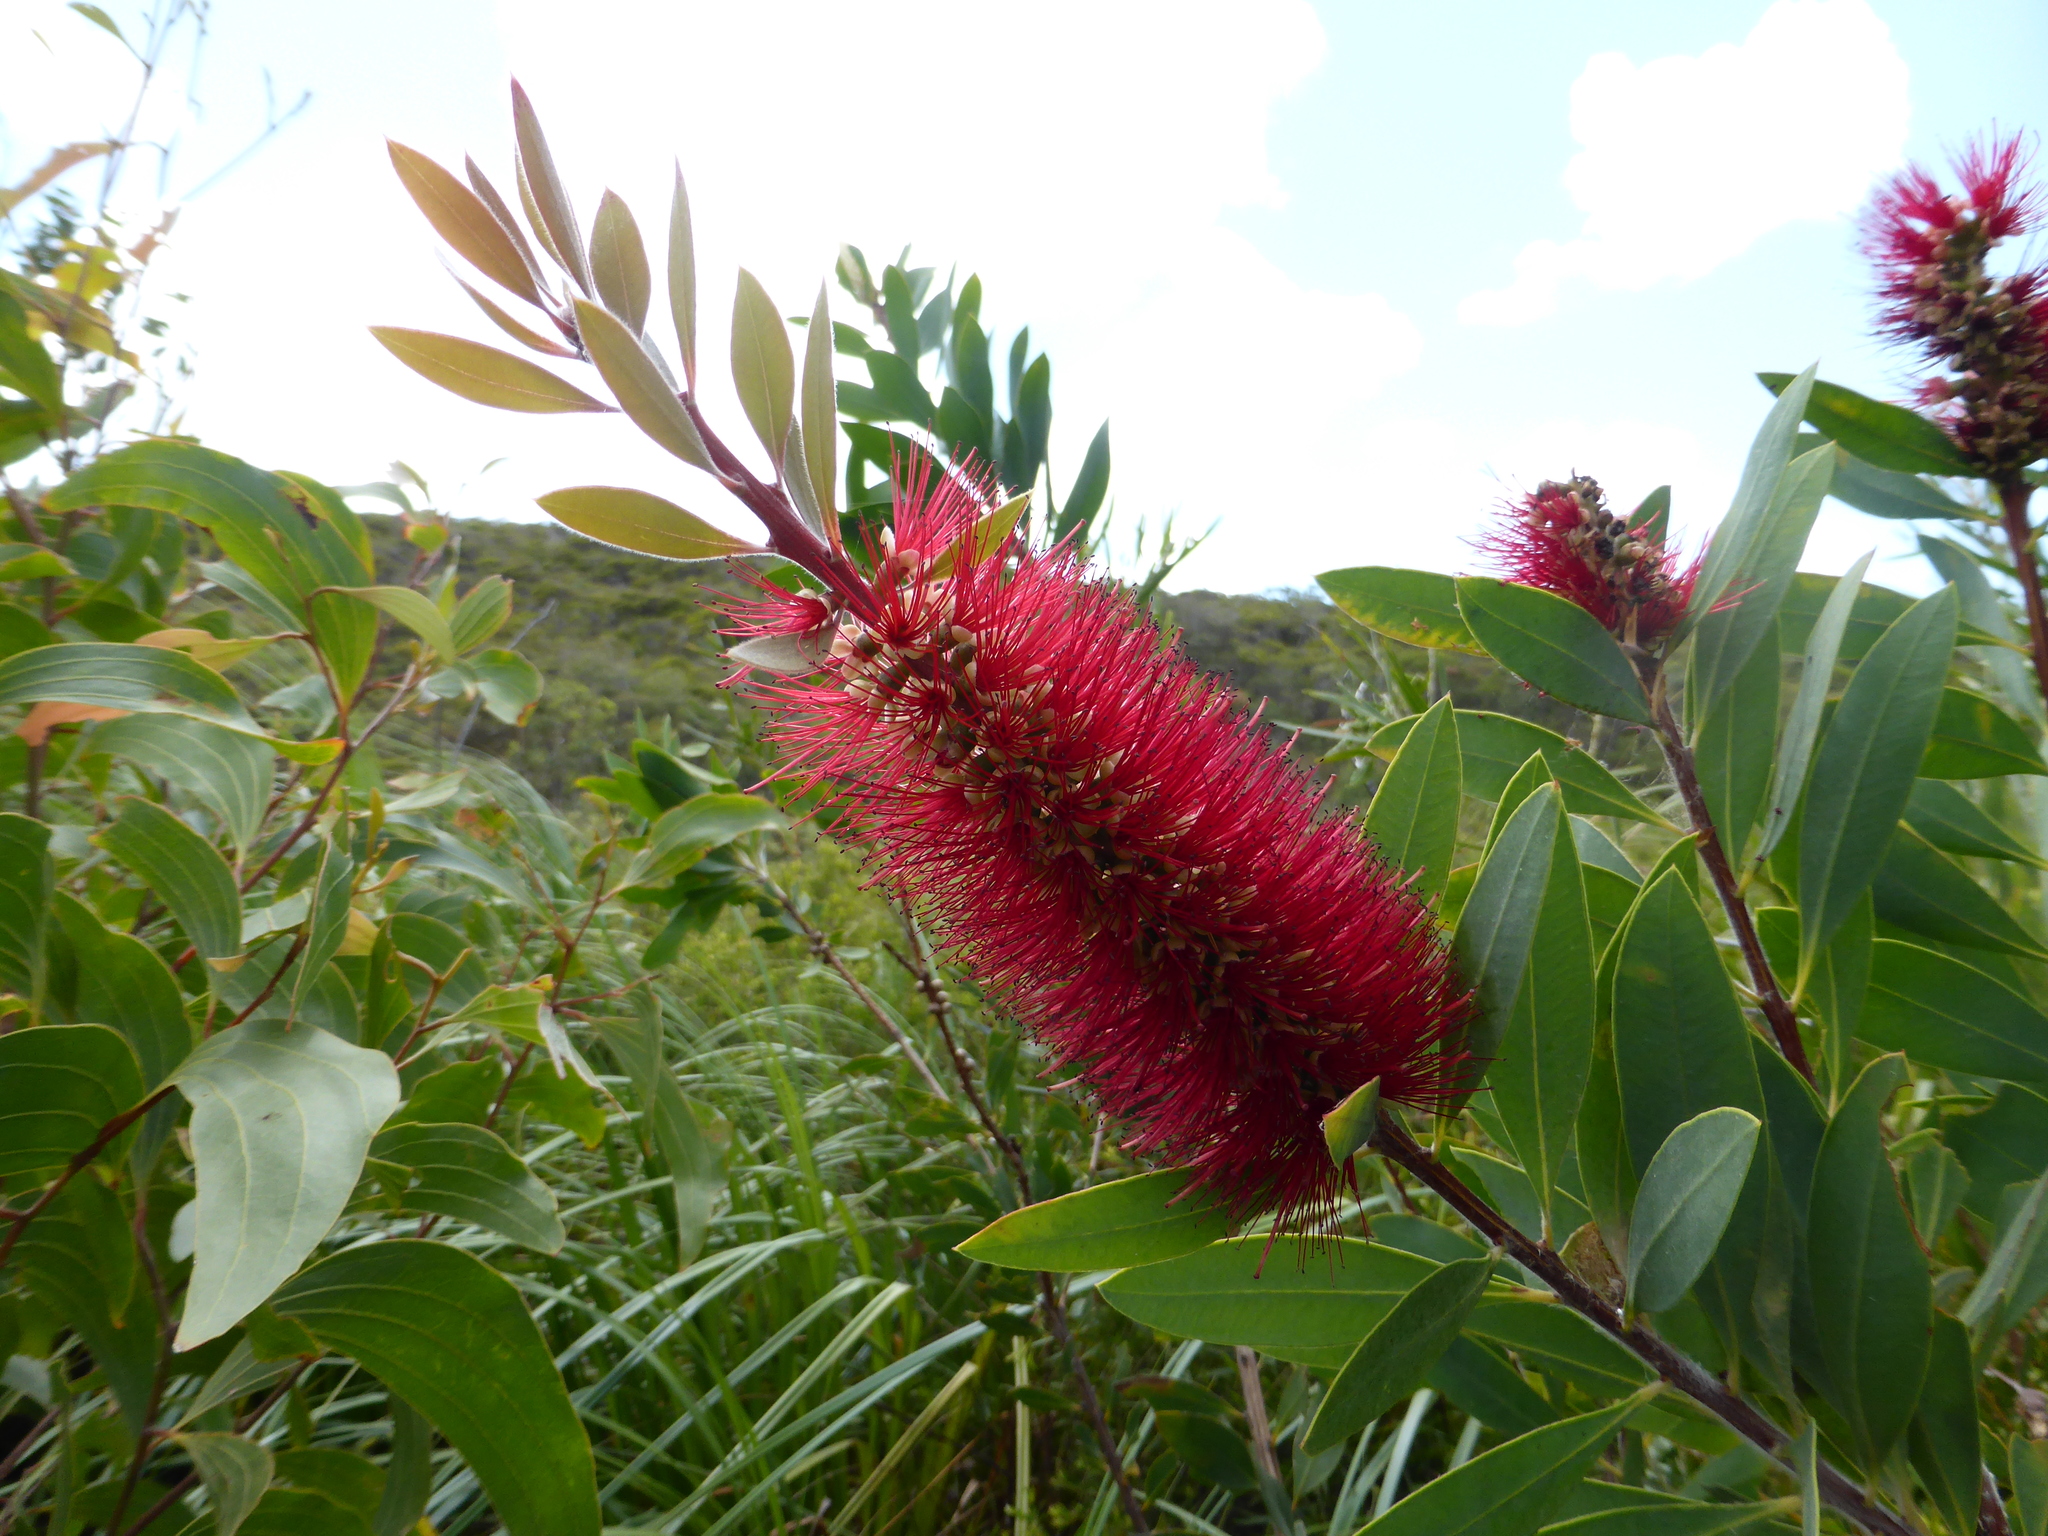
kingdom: Plantae
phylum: Tracheophyta
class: Magnoliopsida
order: Myrtales
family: Myrtaceae
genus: Callistemon
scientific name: Callistemon polandii
